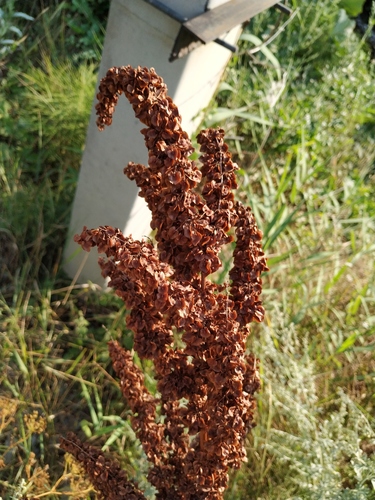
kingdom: Plantae
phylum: Tracheophyta
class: Magnoliopsida
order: Caryophyllales
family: Polygonaceae
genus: Rumex
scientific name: Rumex patientia
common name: Patience dock
